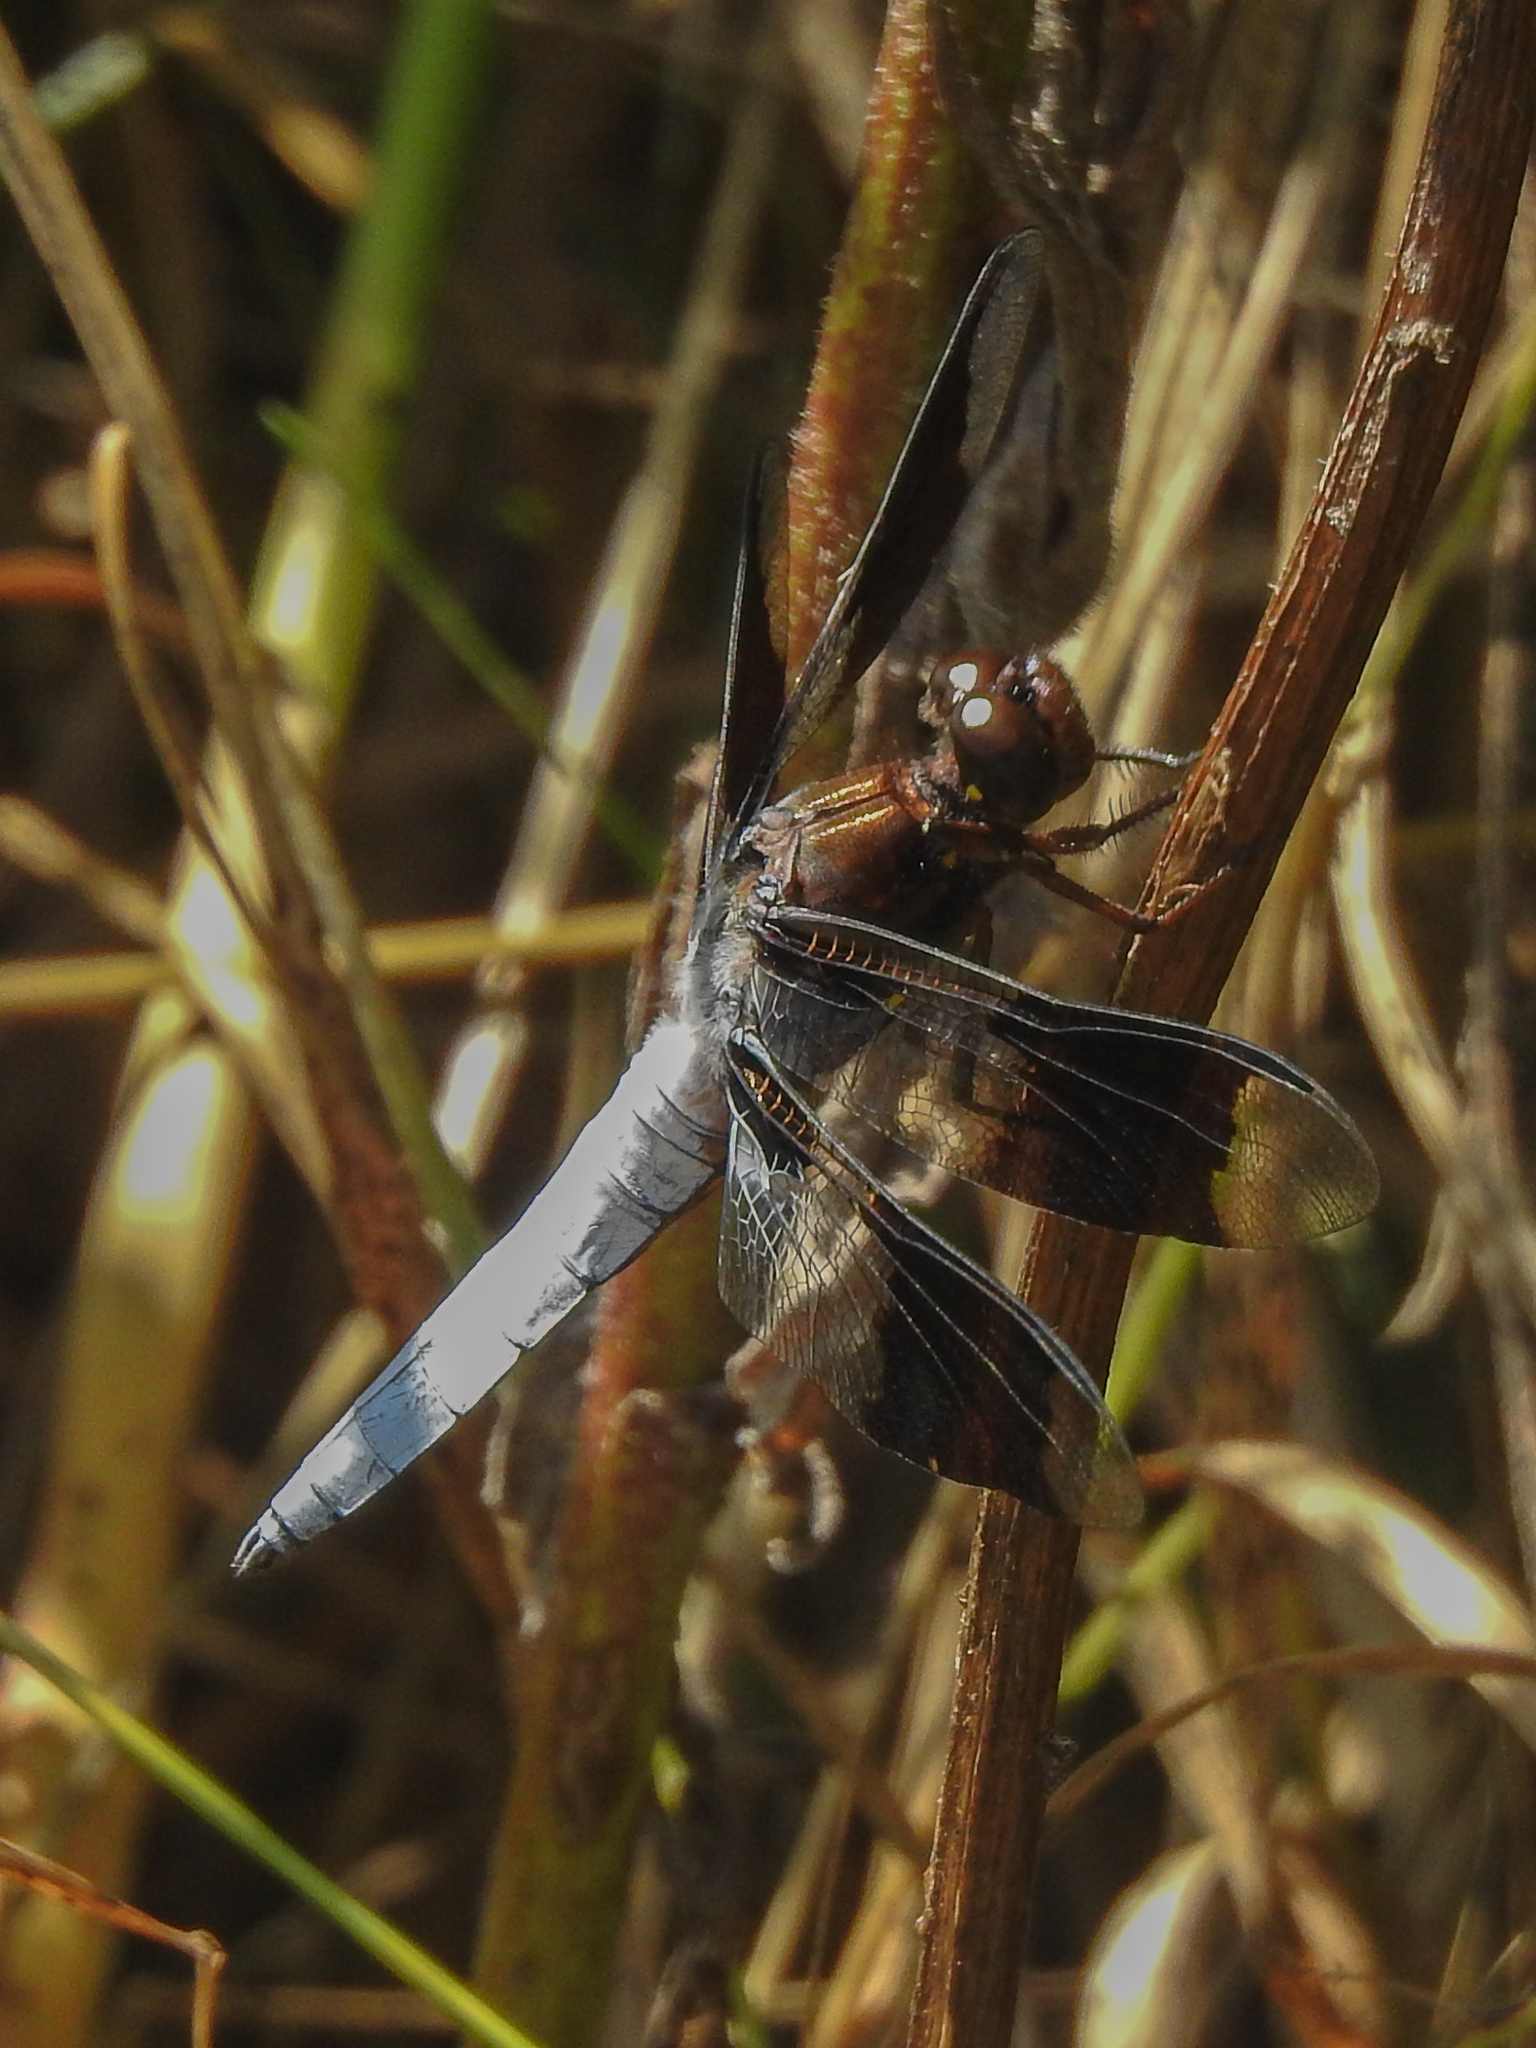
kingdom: Animalia
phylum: Arthropoda
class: Insecta
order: Odonata
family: Libellulidae
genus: Plathemis
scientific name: Plathemis lydia
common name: Common whitetail
